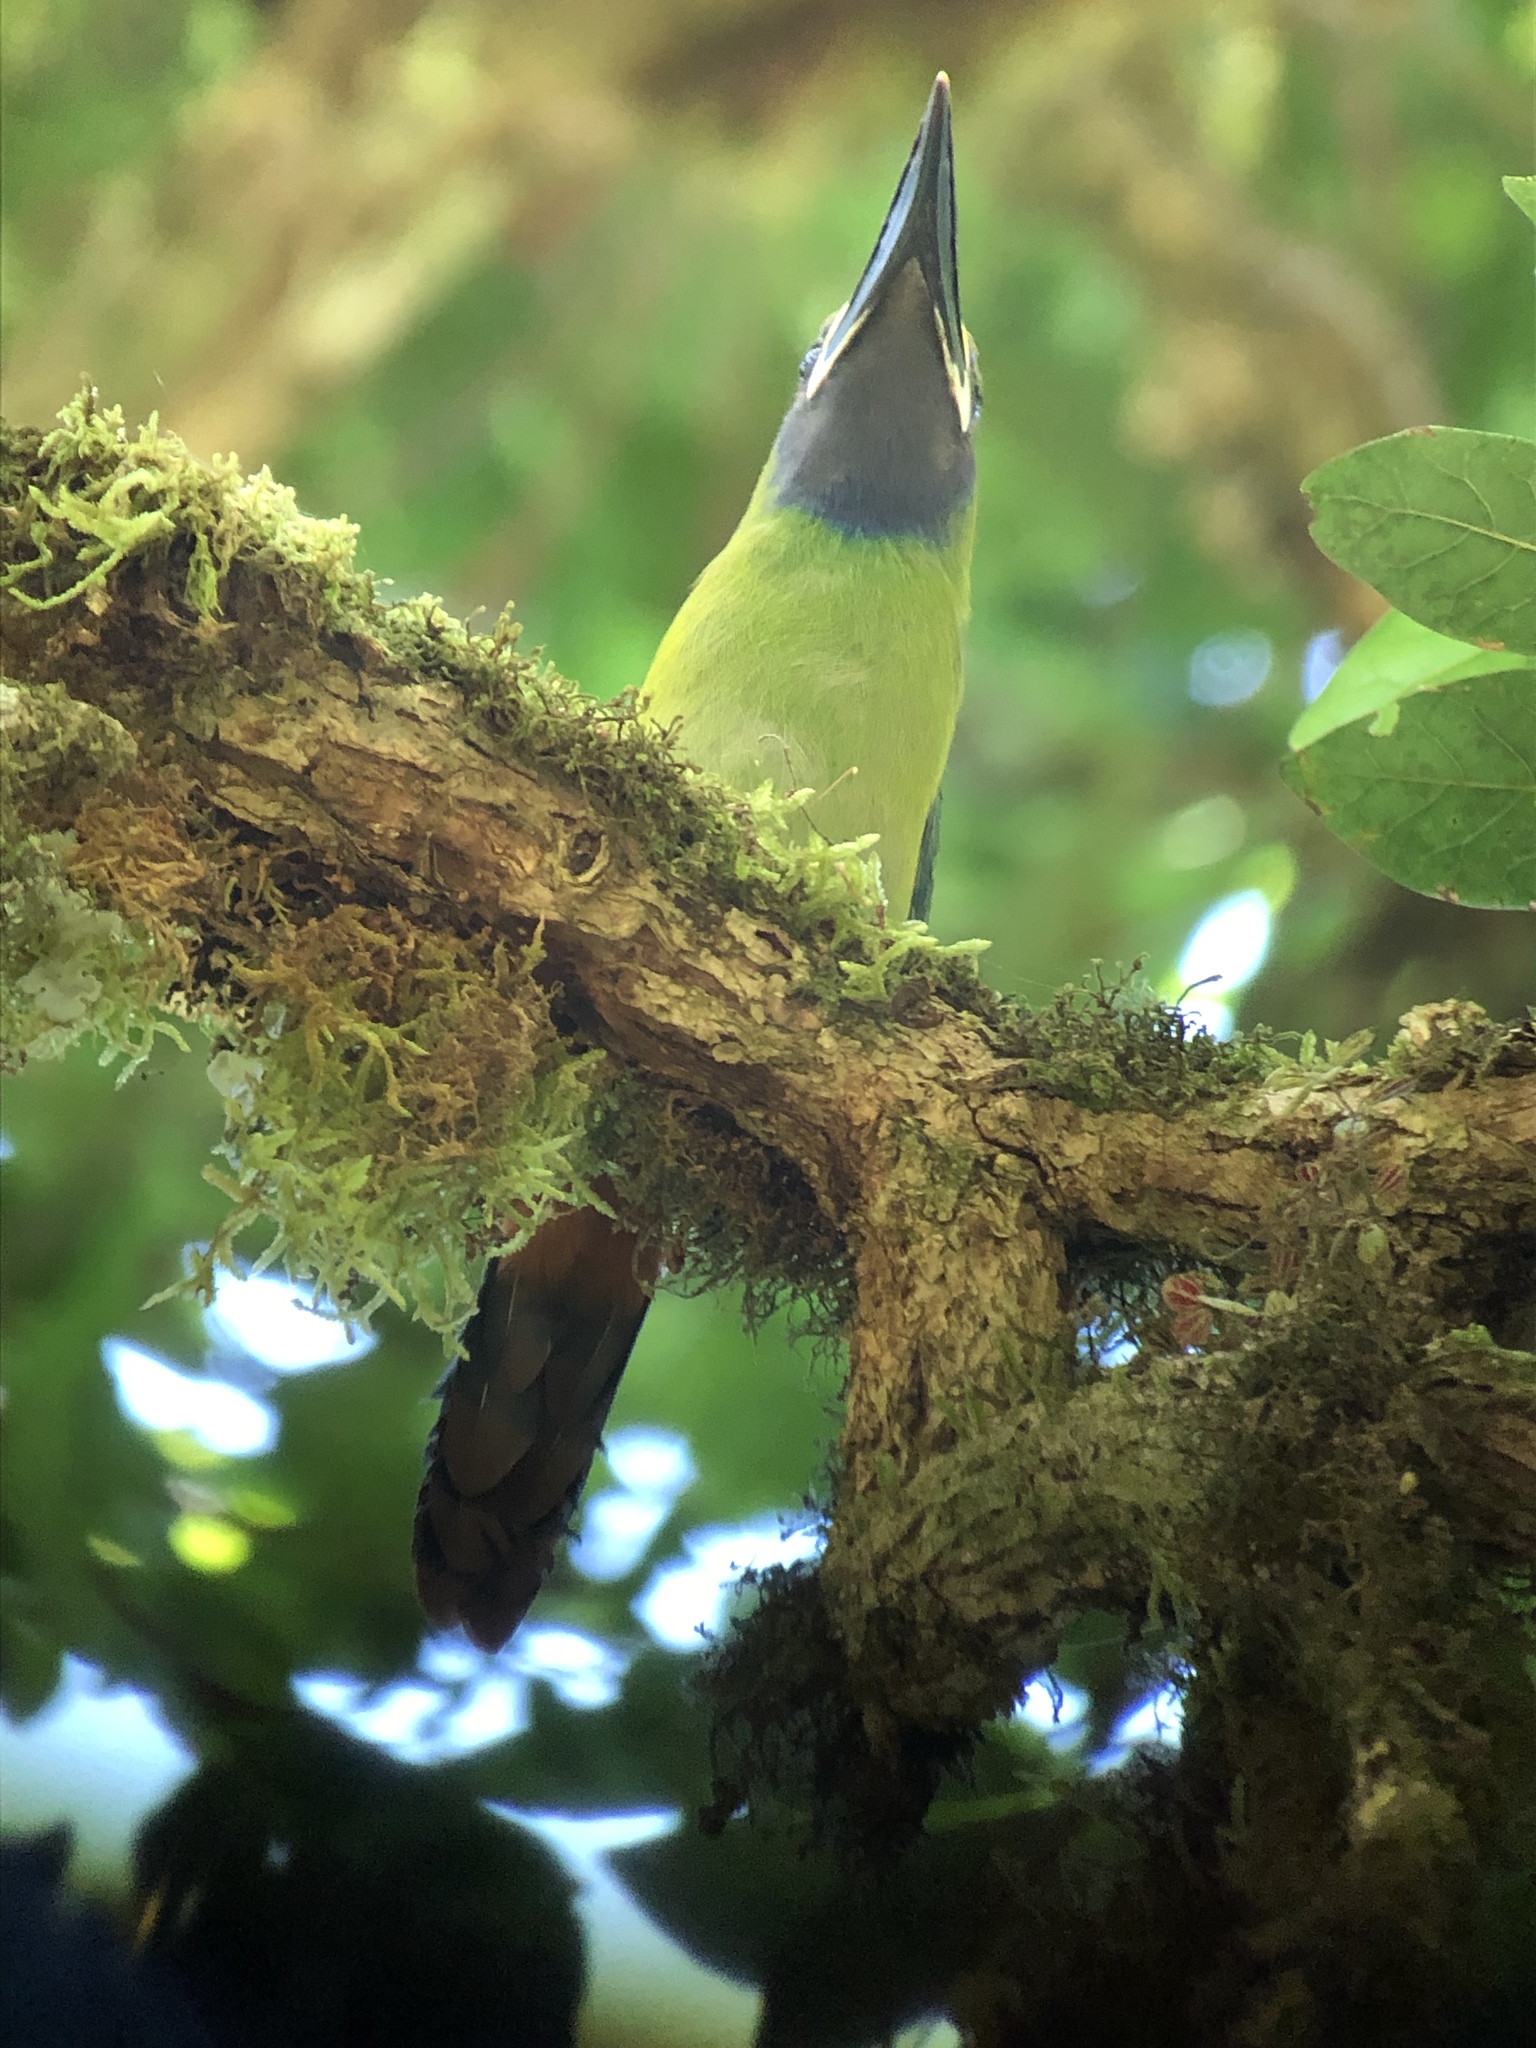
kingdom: Animalia
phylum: Chordata
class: Aves
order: Piciformes
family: Ramphastidae
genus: Aulacorhynchus
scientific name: Aulacorhynchus prasinus
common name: Emerald toucanet
